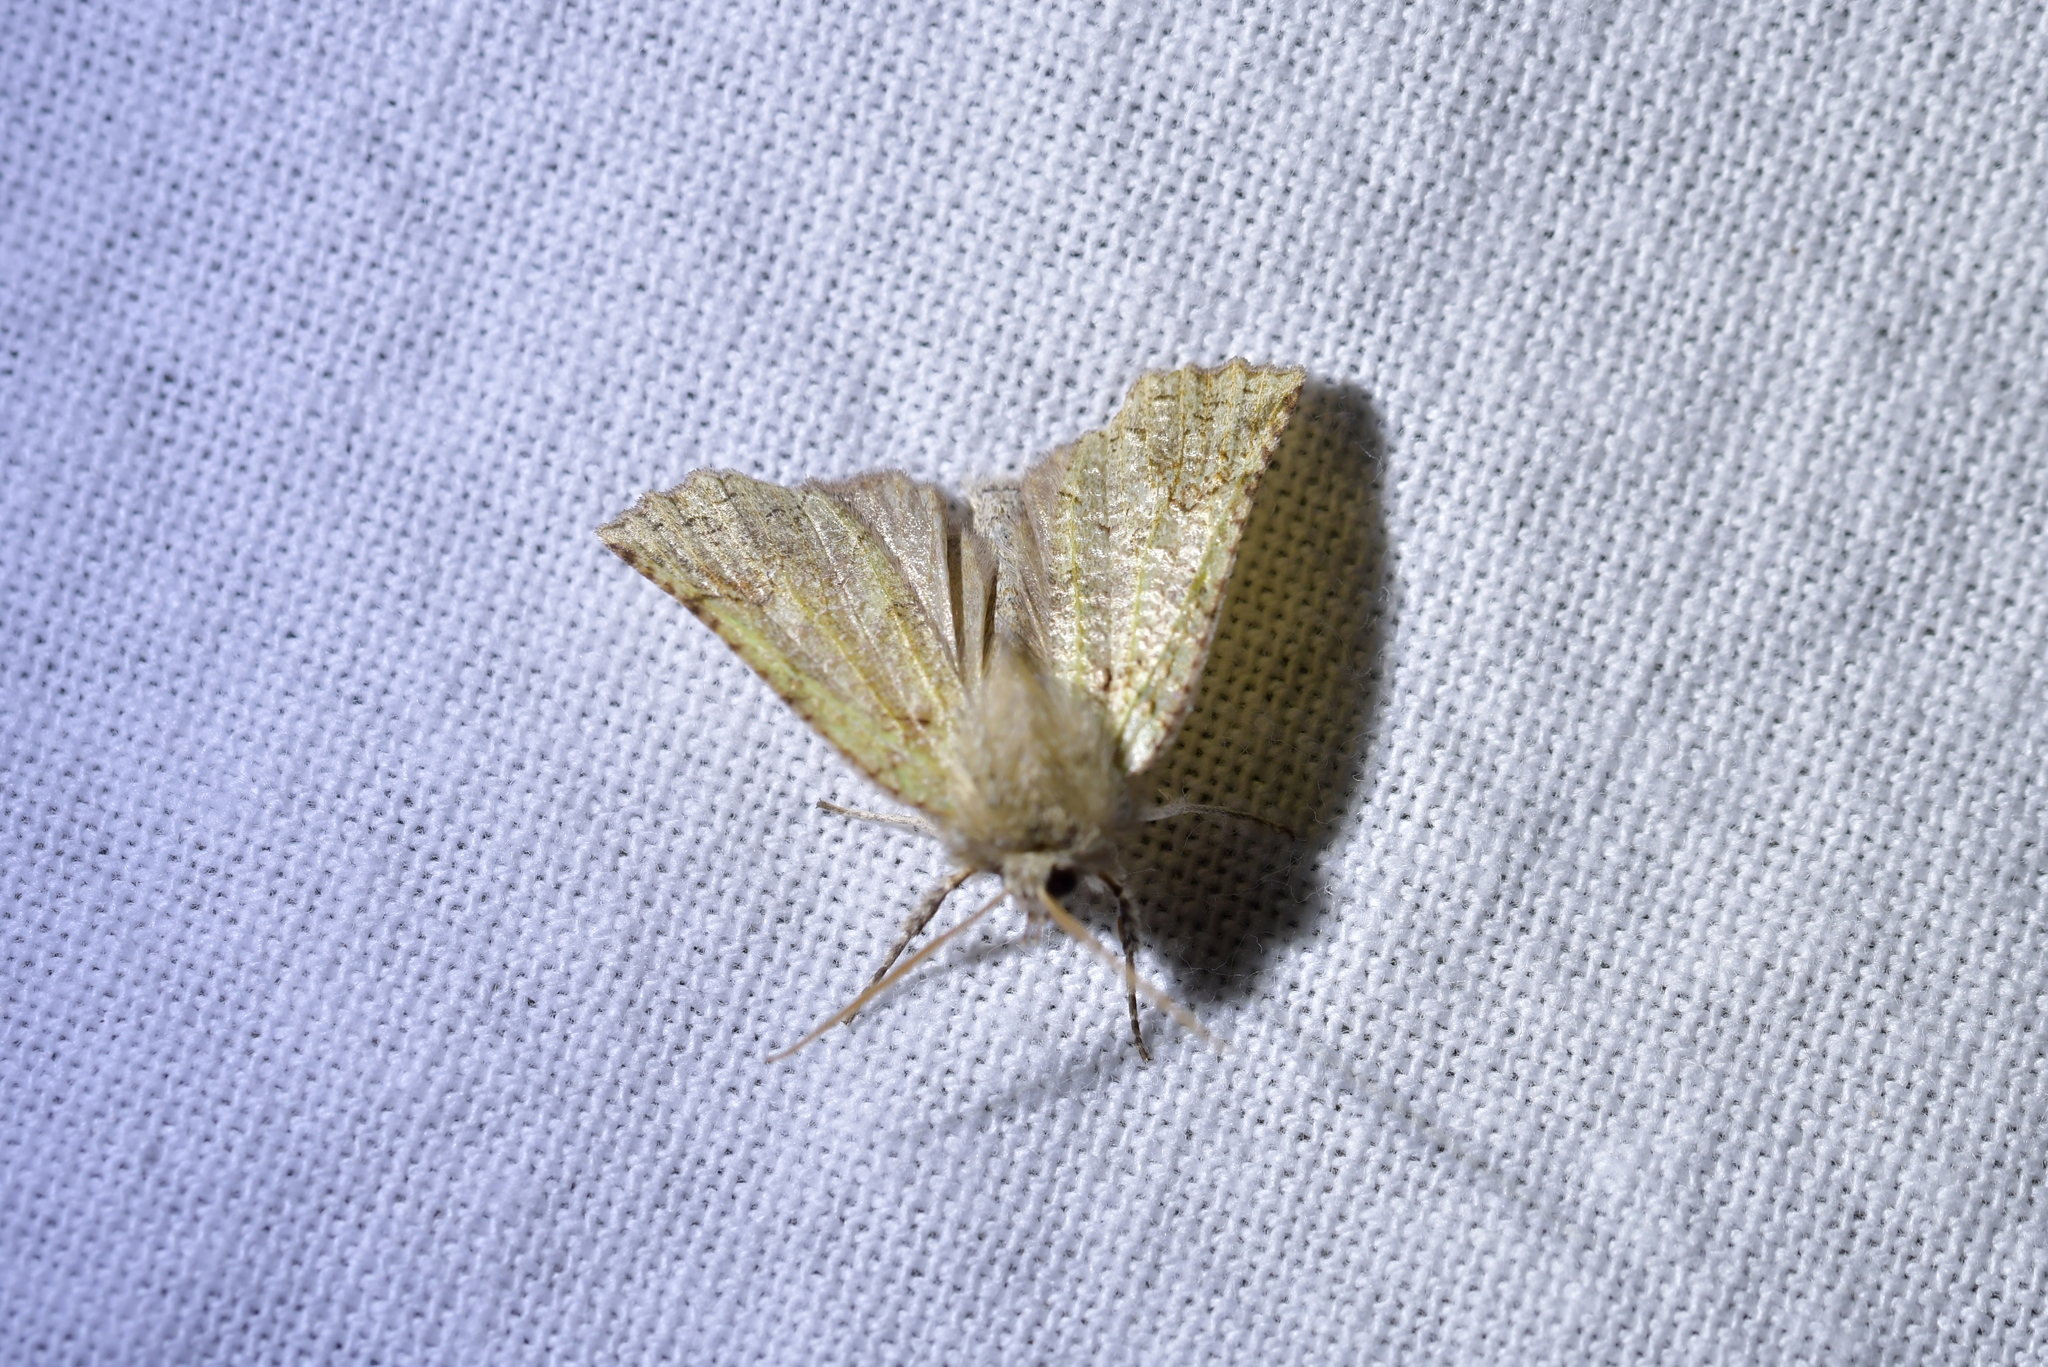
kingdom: Animalia
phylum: Arthropoda
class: Insecta
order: Lepidoptera
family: Geometridae
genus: Declana
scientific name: Declana floccosa
